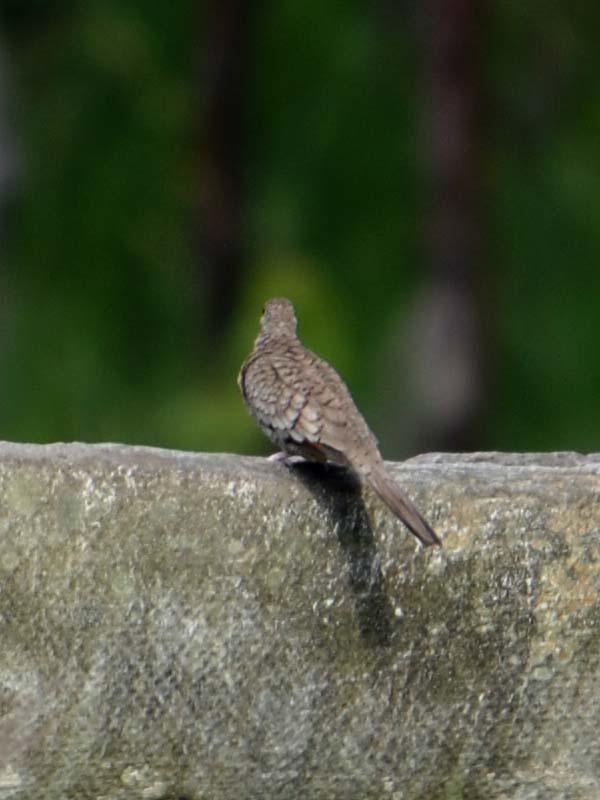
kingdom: Animalia
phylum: Chordata
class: Aves
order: Columbiformes
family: Columbidae
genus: Columbina
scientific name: Columbina inca
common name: Inca dove
